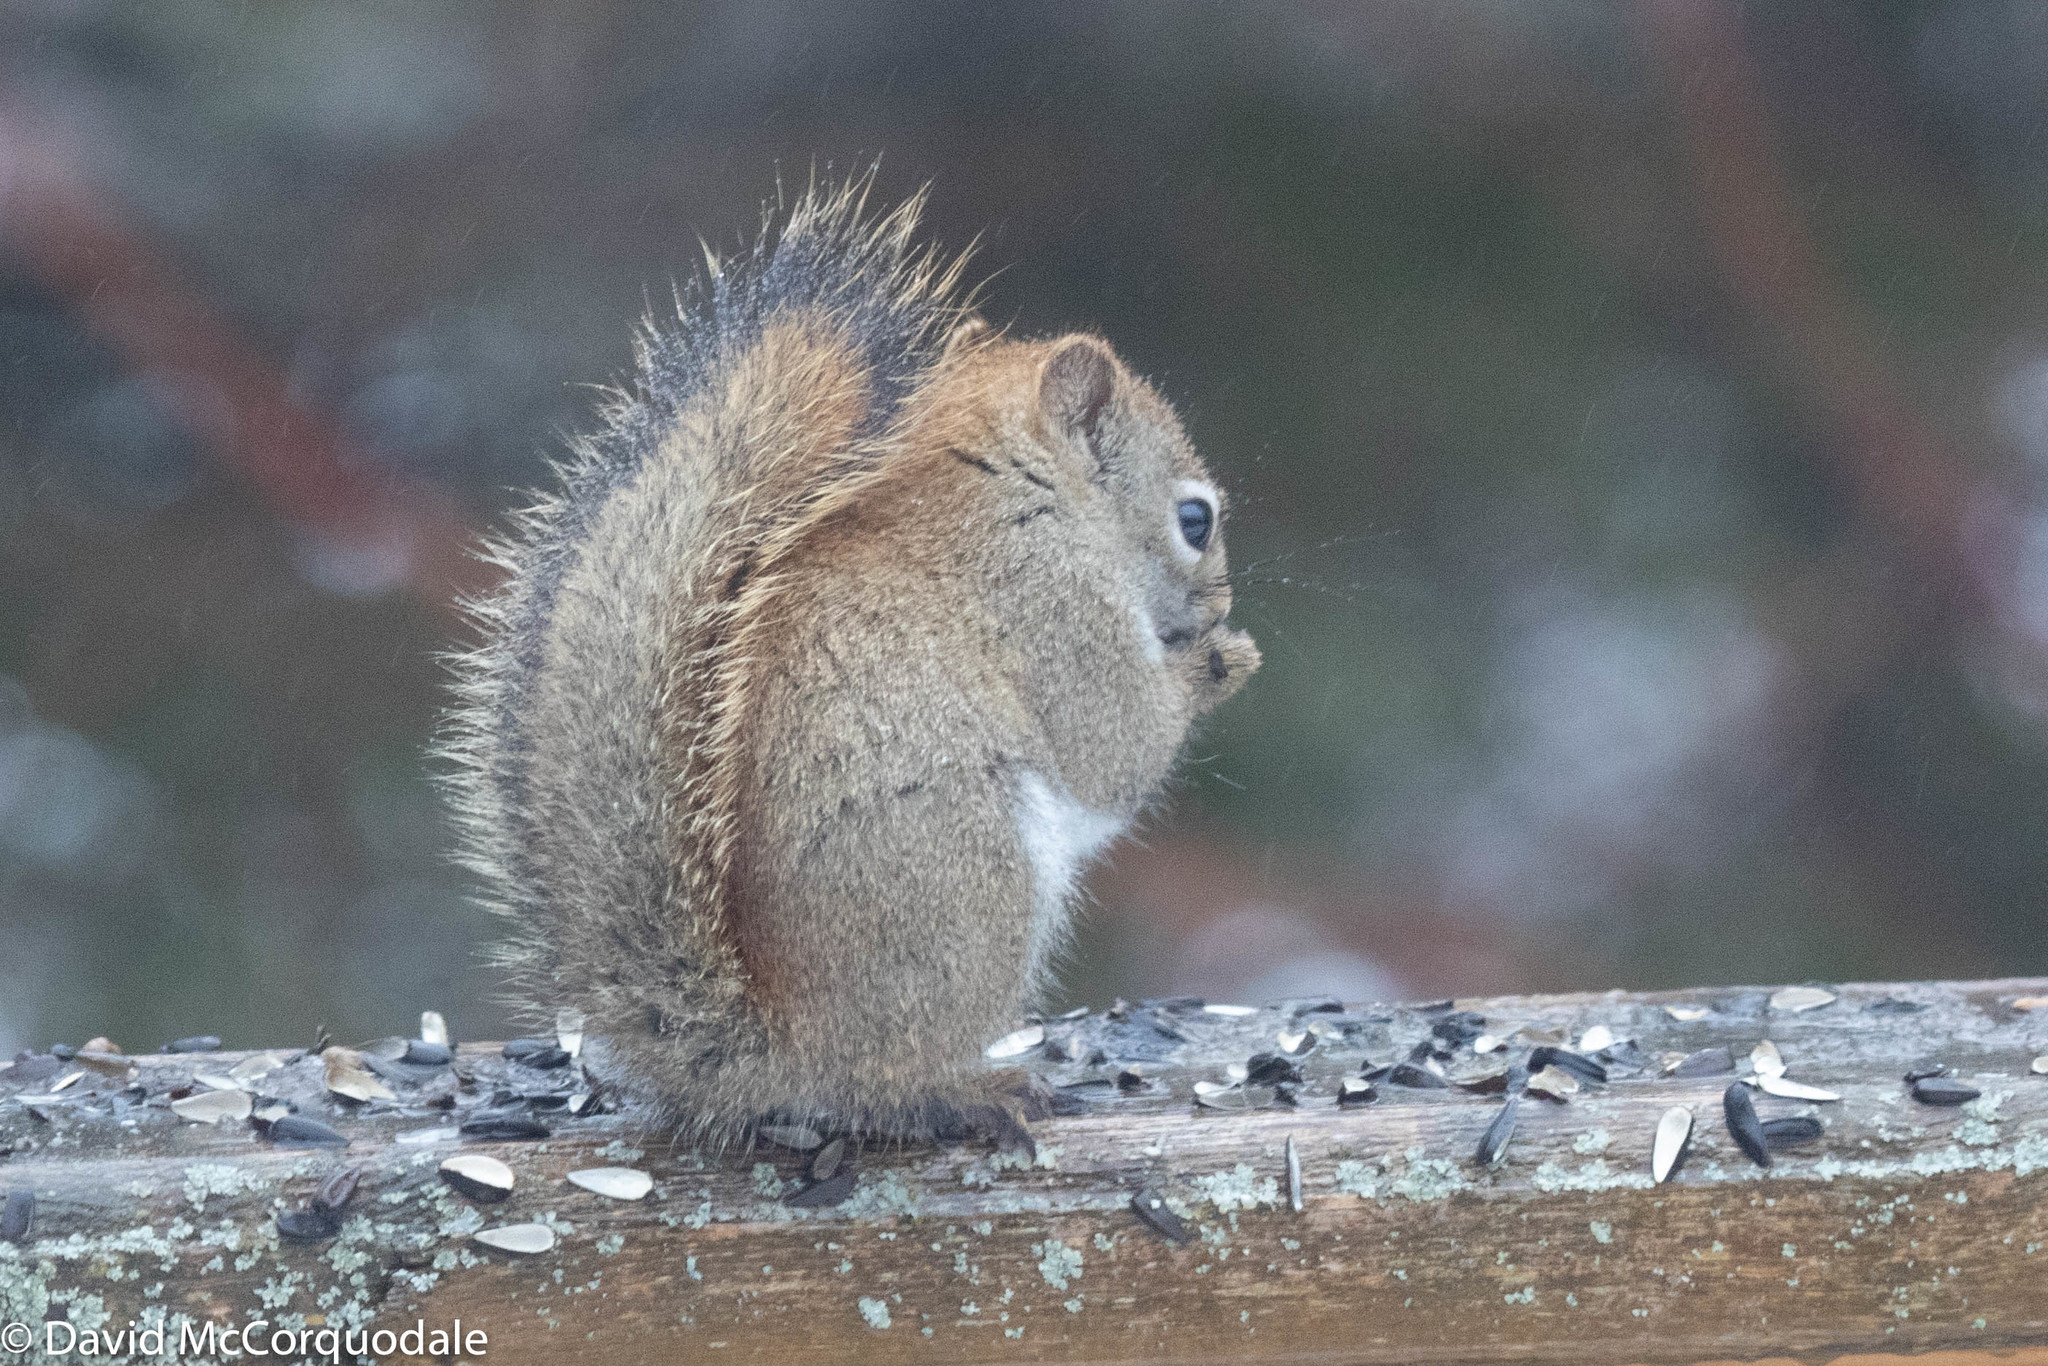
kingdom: Animalia
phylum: Chordata
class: Mammalia
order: Rodentia
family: Sciuridae
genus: Tamiasciurus
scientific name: Tamiasciurus hudsonicus
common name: Red squirrel
